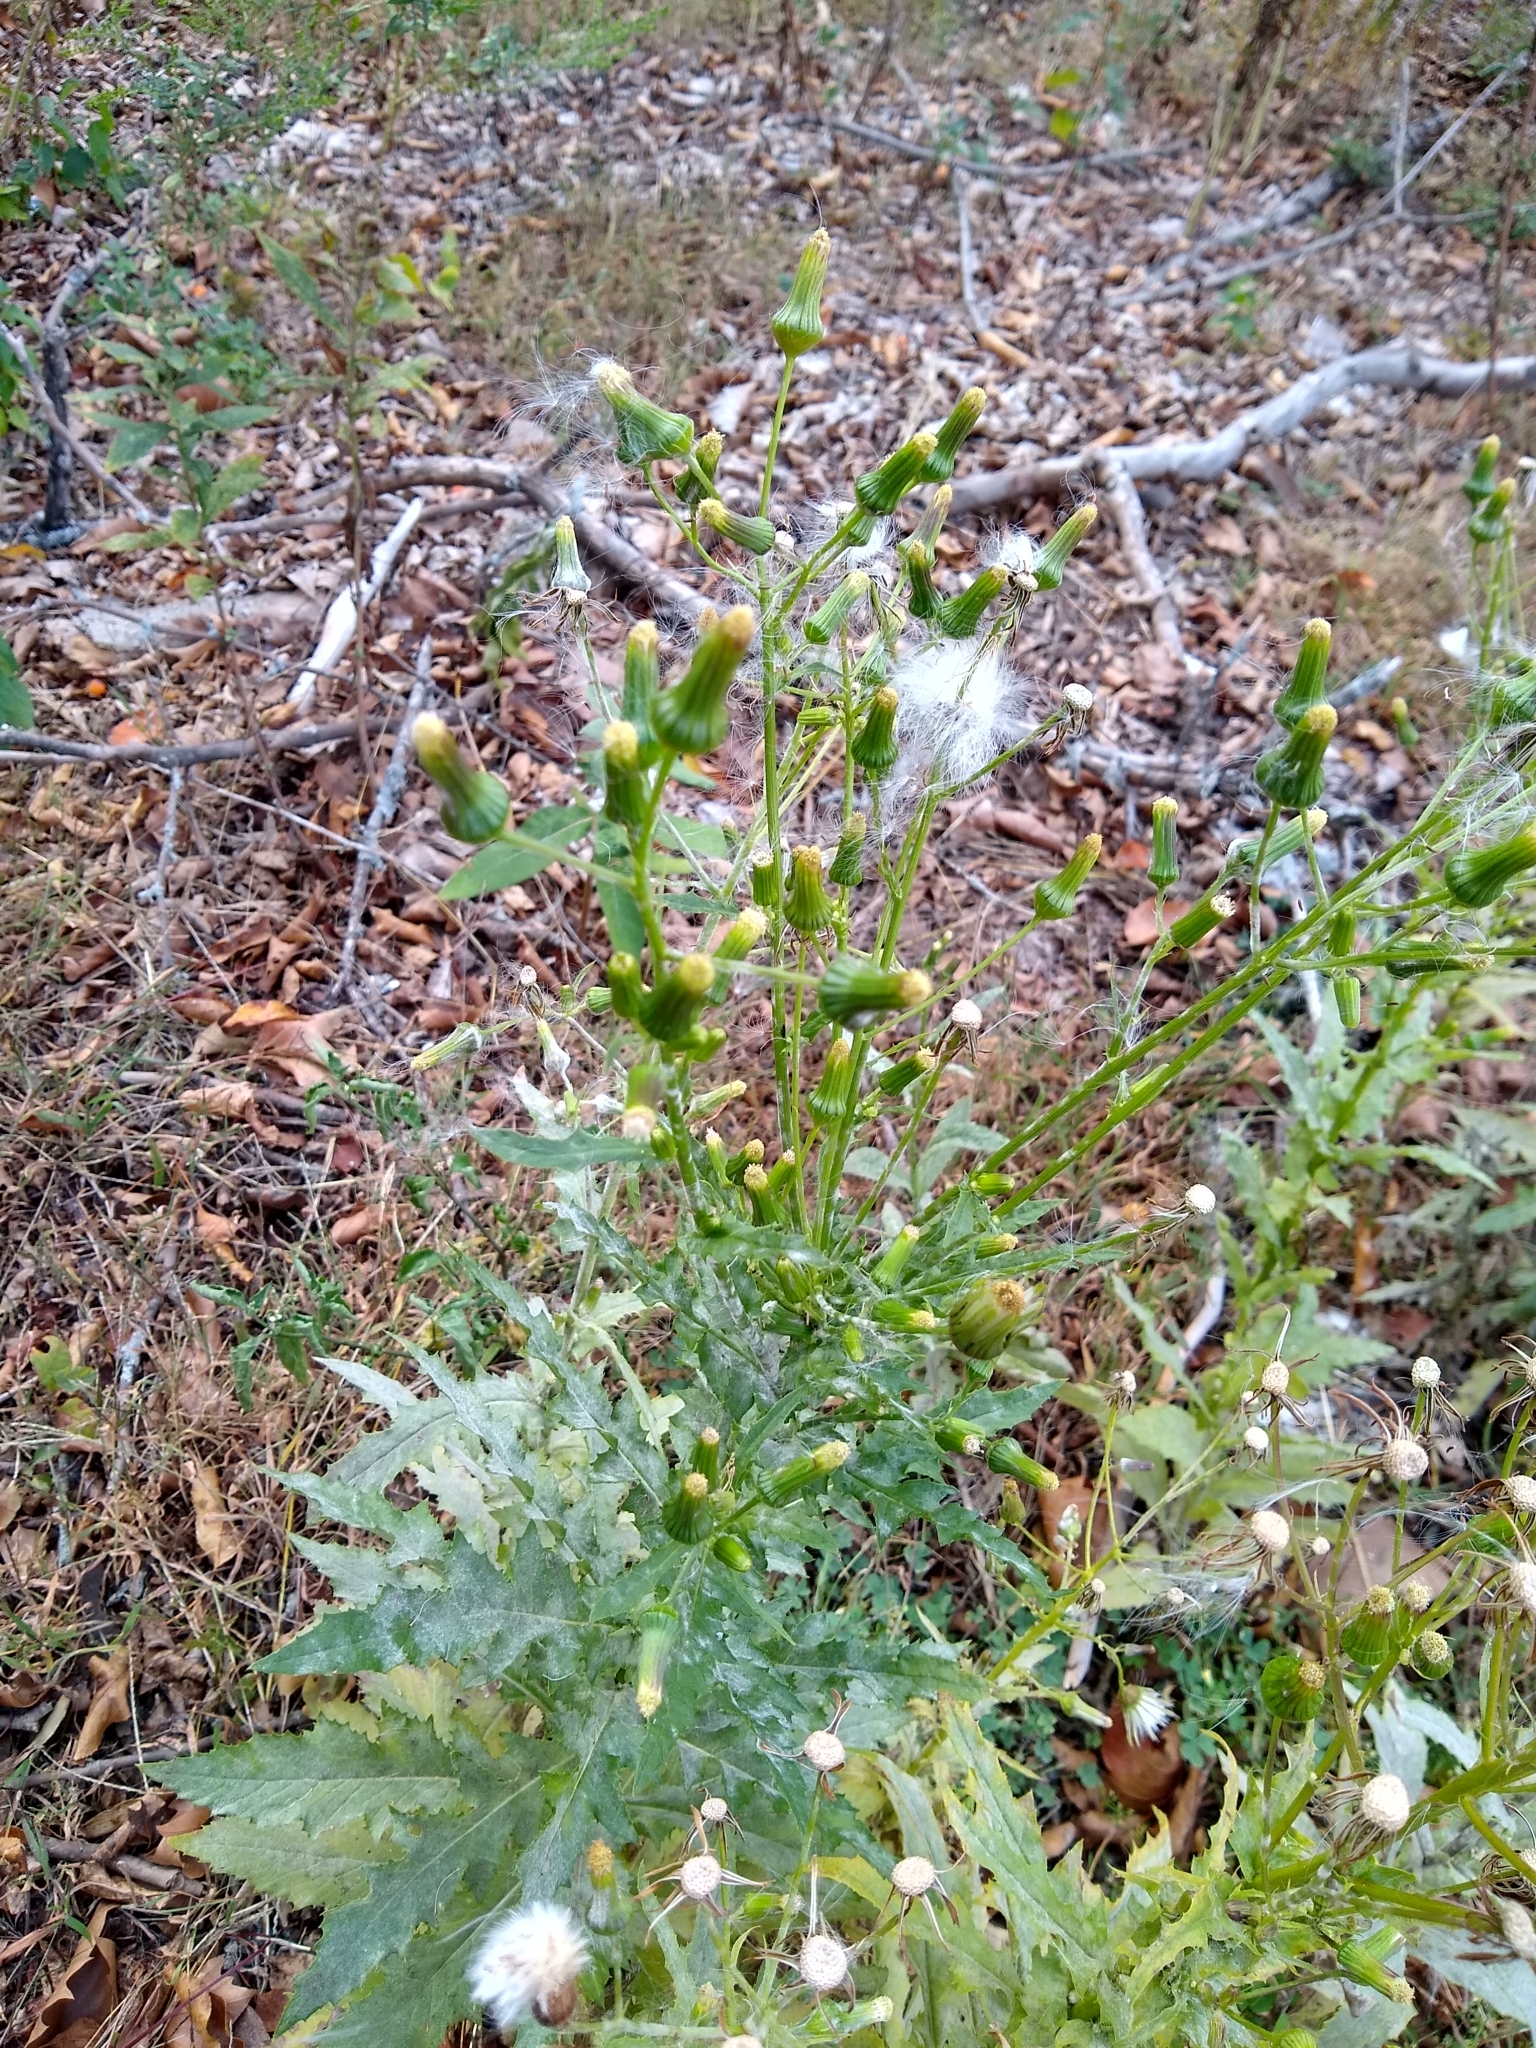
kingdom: Plantae
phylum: Tracheophyta
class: Magnoliopsida
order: Asterales
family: Asteraceae
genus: Erechtites
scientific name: Erechtites hieraciifolius
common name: American burnweed
